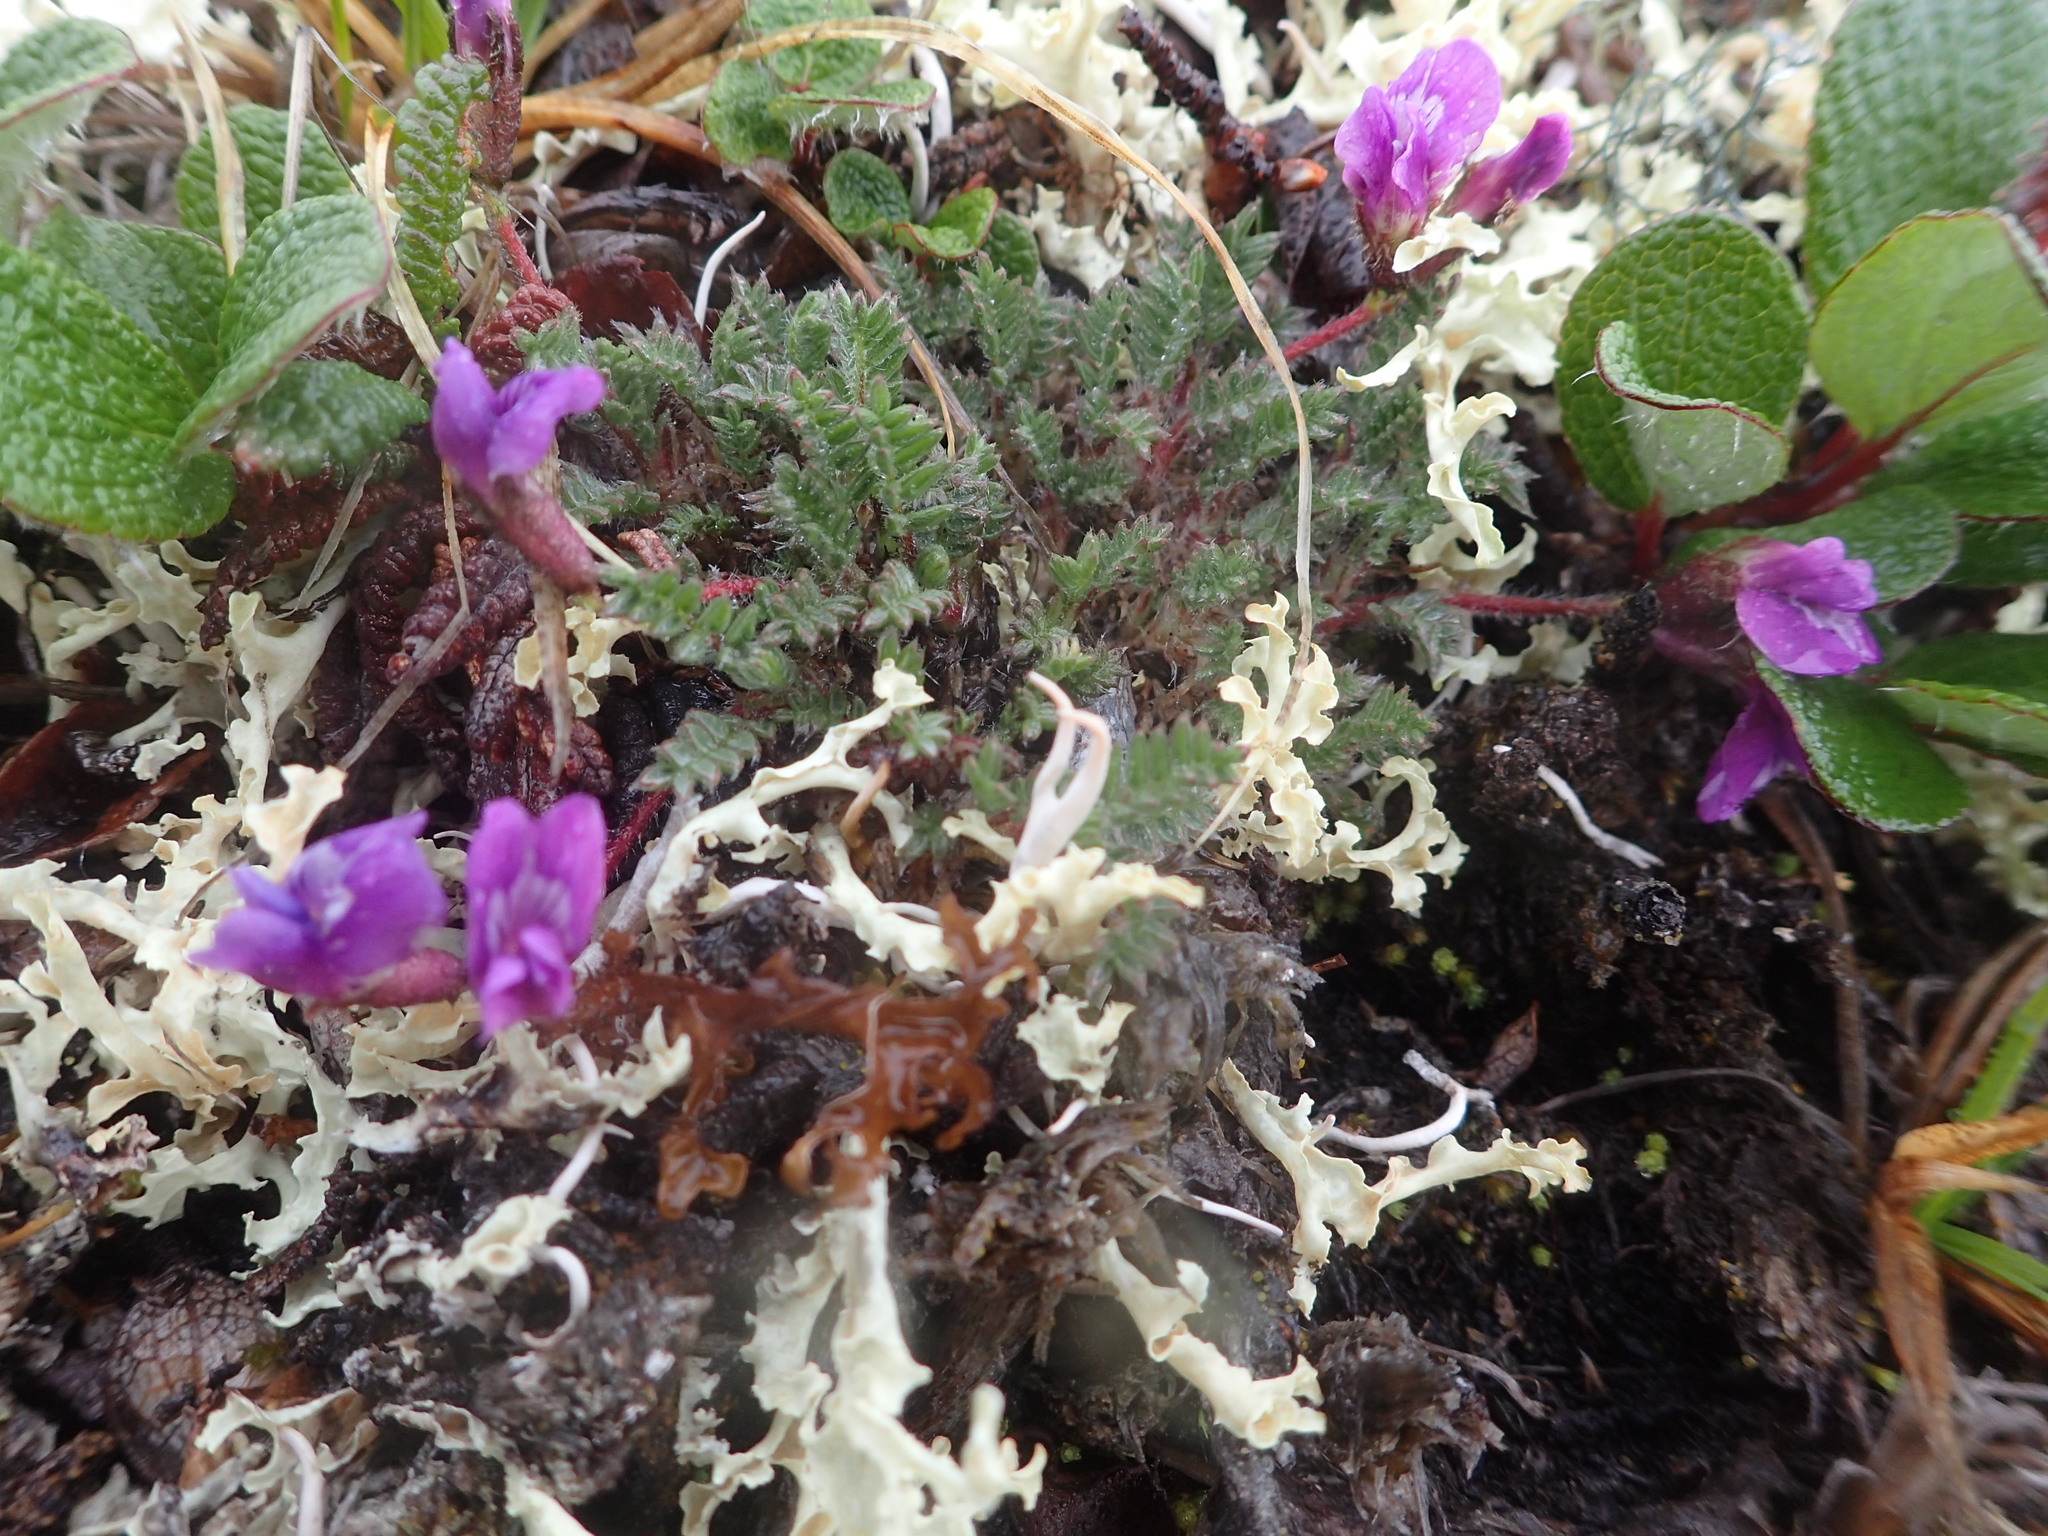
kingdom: Plantae
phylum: Tracheophyta
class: Magnoliopsida
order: Fabales
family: Fabaceae
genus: Oxytropis
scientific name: Oxytropis nigrescens
